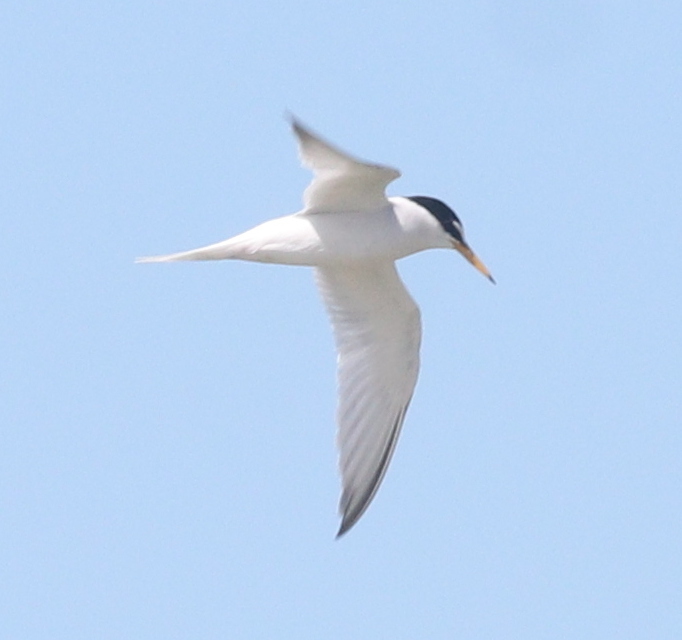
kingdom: Animalia
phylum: Chordata
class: Aves
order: Charadriiformes
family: Laridae
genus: Sternula
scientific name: Sternula albifrons
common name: Little tern
